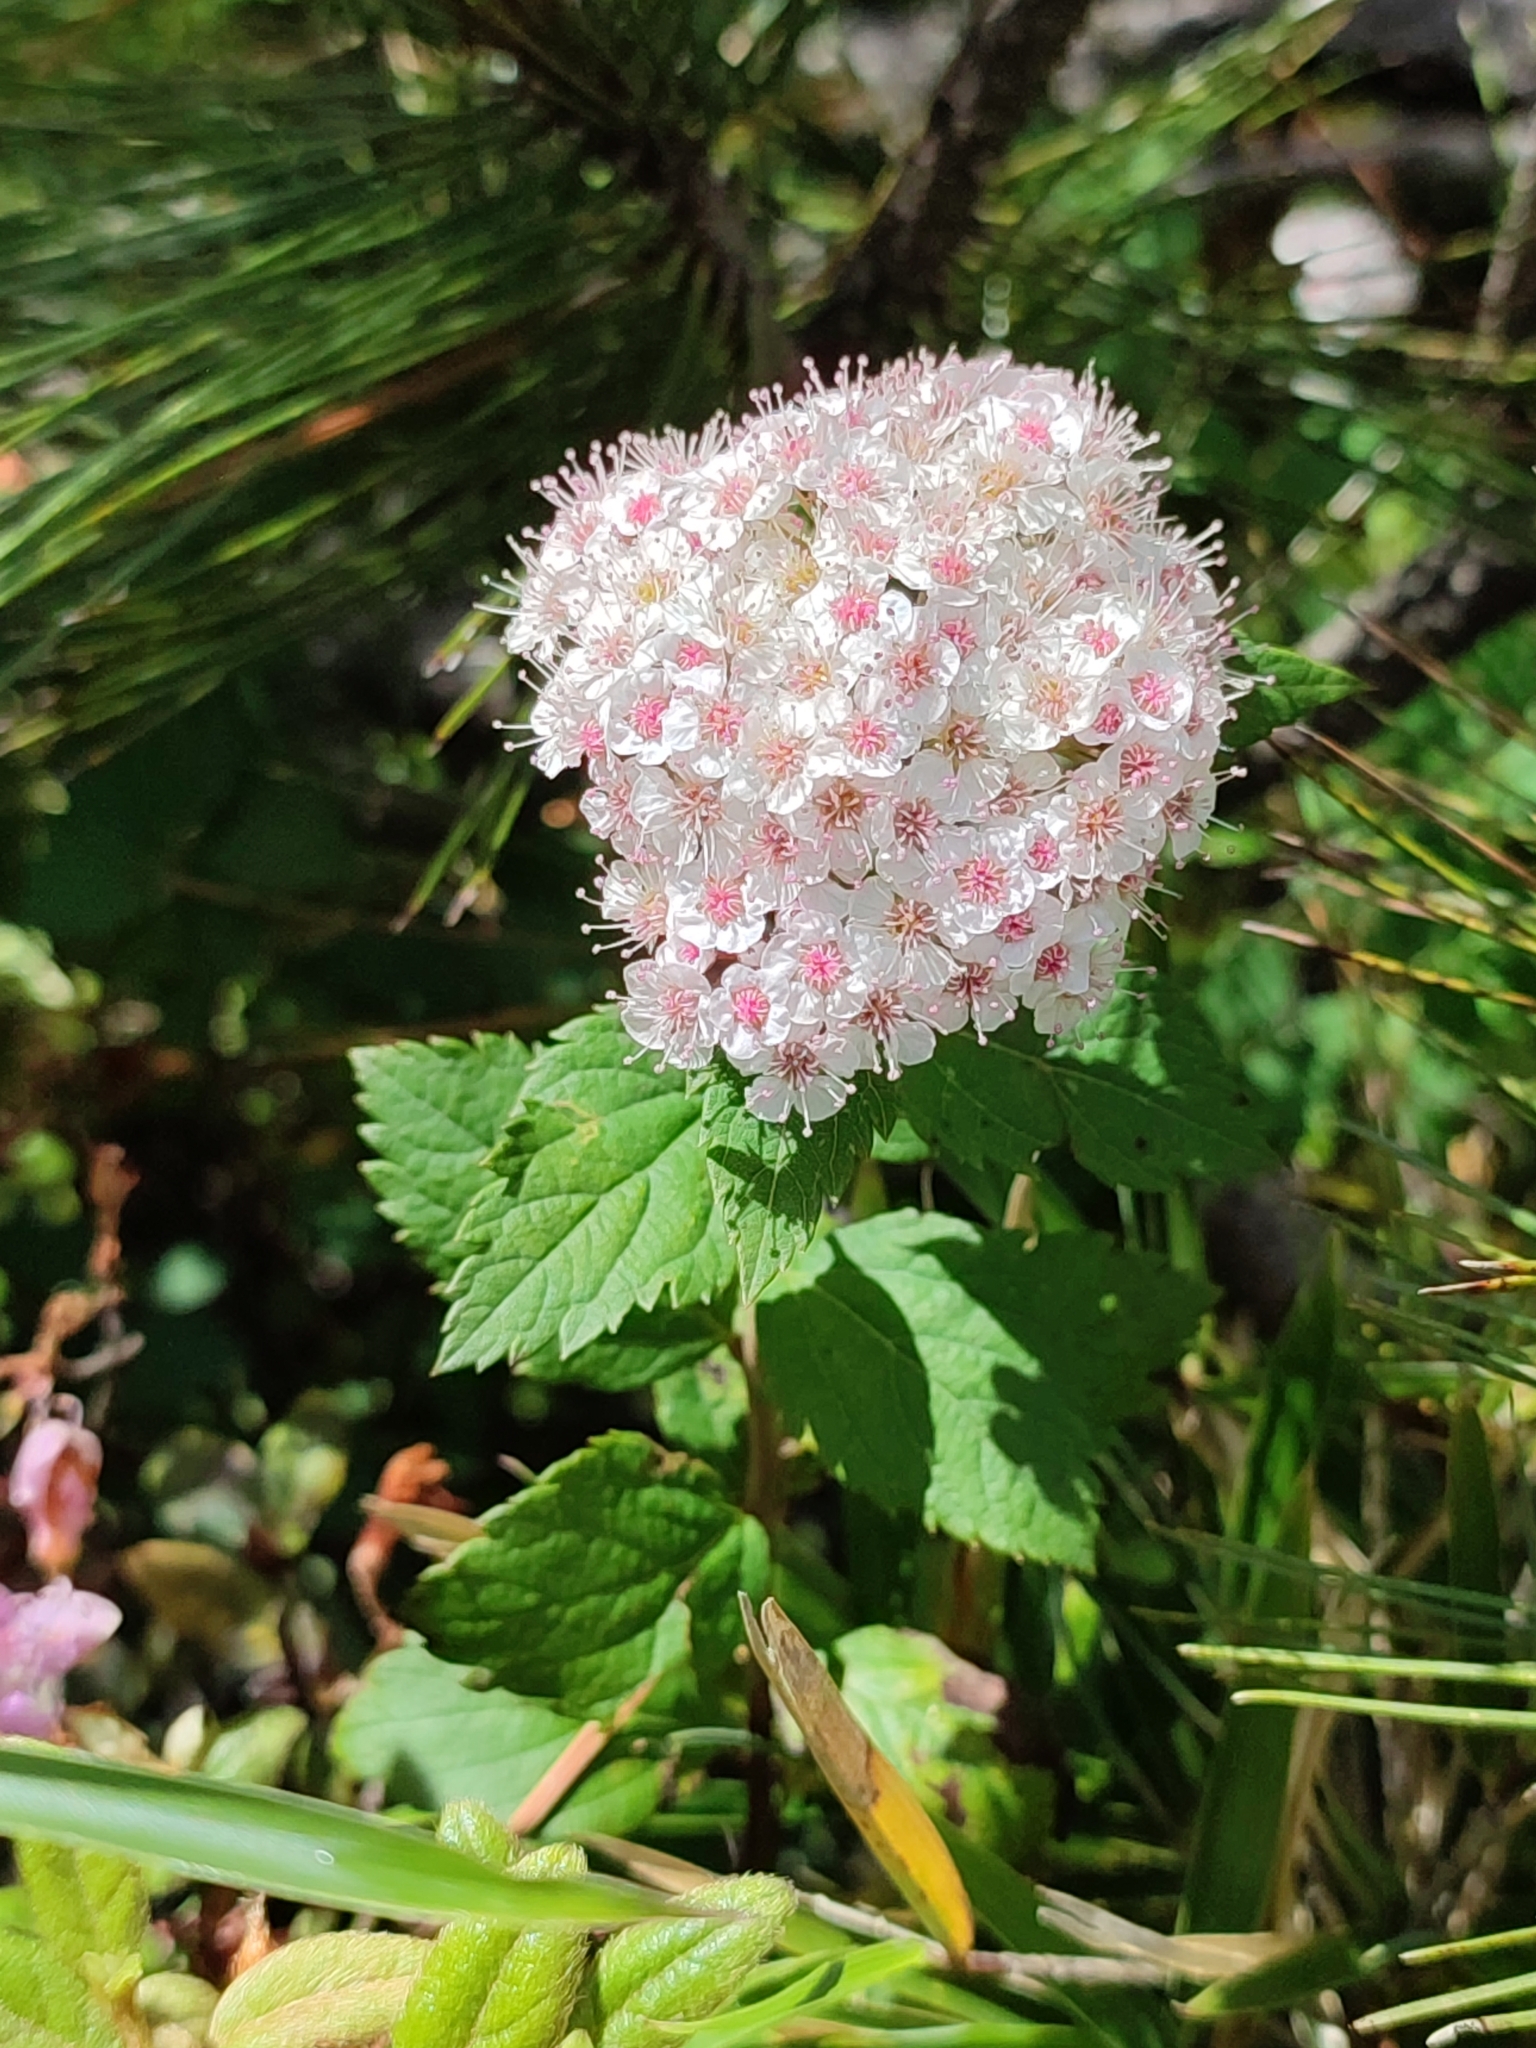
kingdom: Plantae
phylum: Tracheophyta
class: Magnoliopsida
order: Rosales
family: Rosaceae
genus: Spiraea
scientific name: Spiraea morrisonicola
